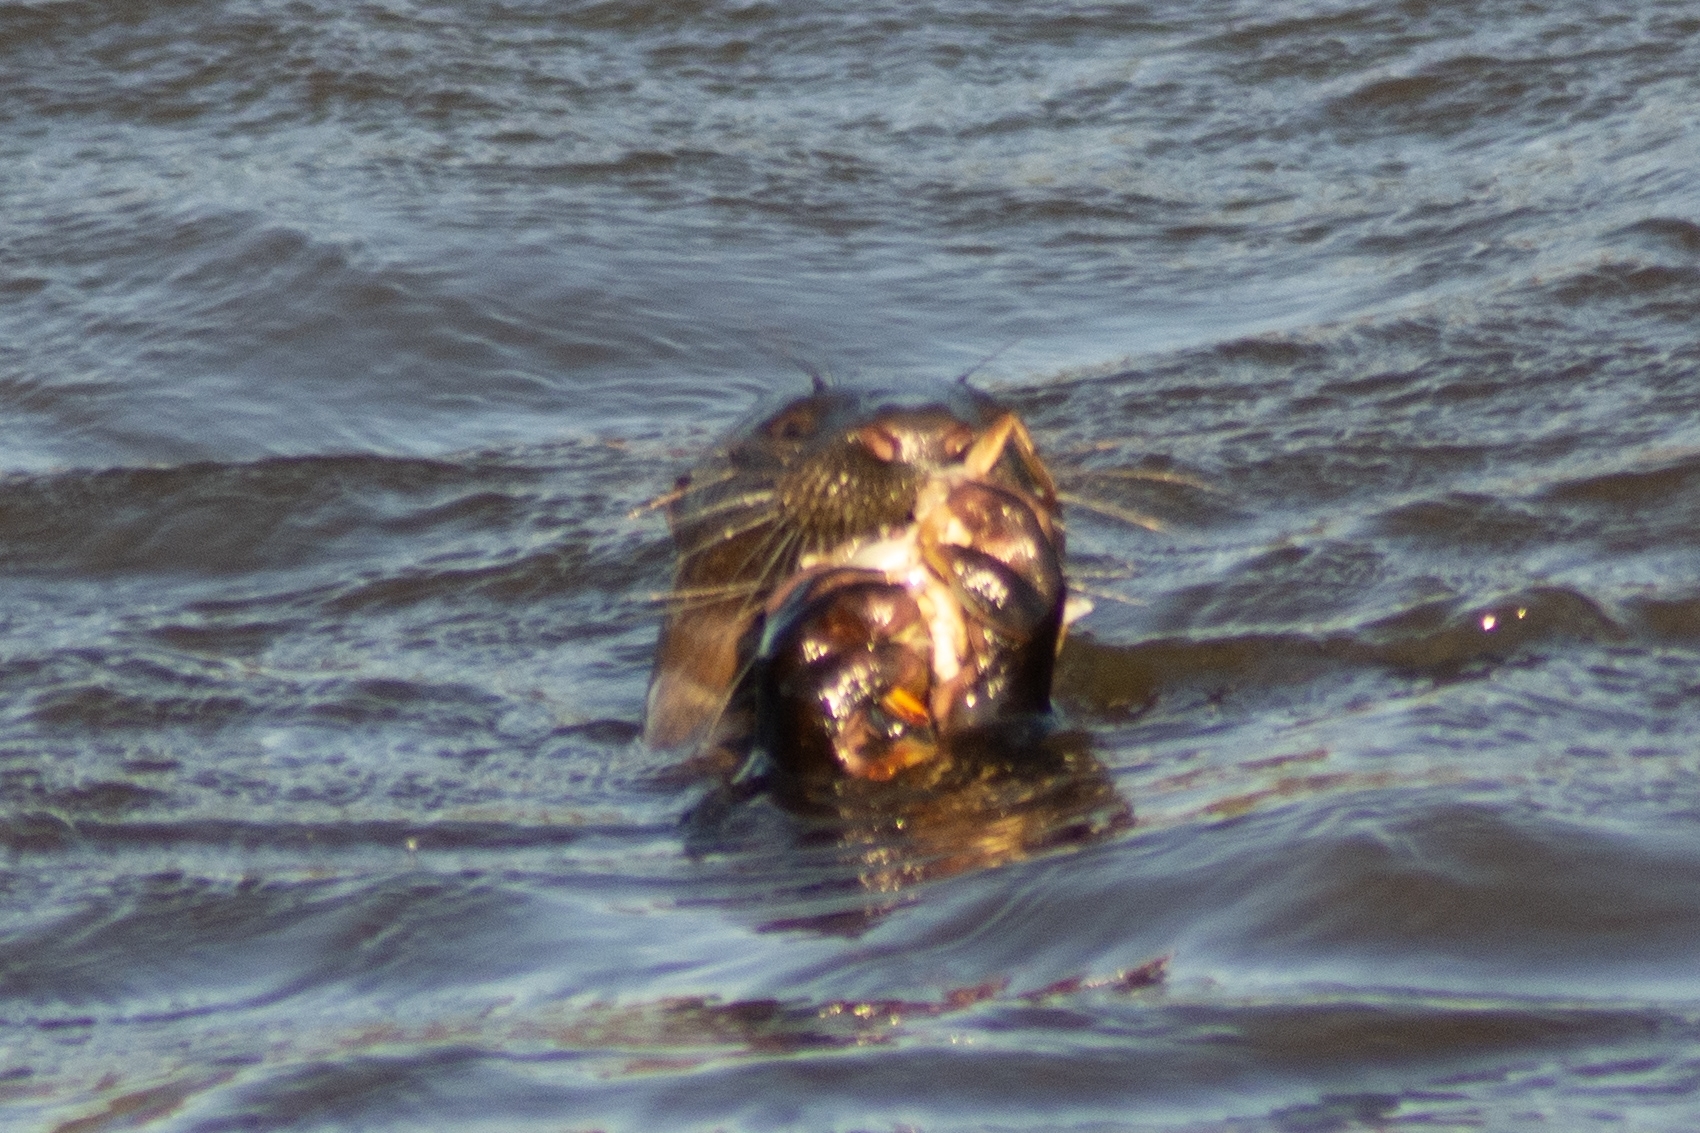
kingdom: Animalia
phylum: Chordata
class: Mammalia
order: Carnivora
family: Mustelidae
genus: Lontra
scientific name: Lontra longicaudis
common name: Neotropical otter
